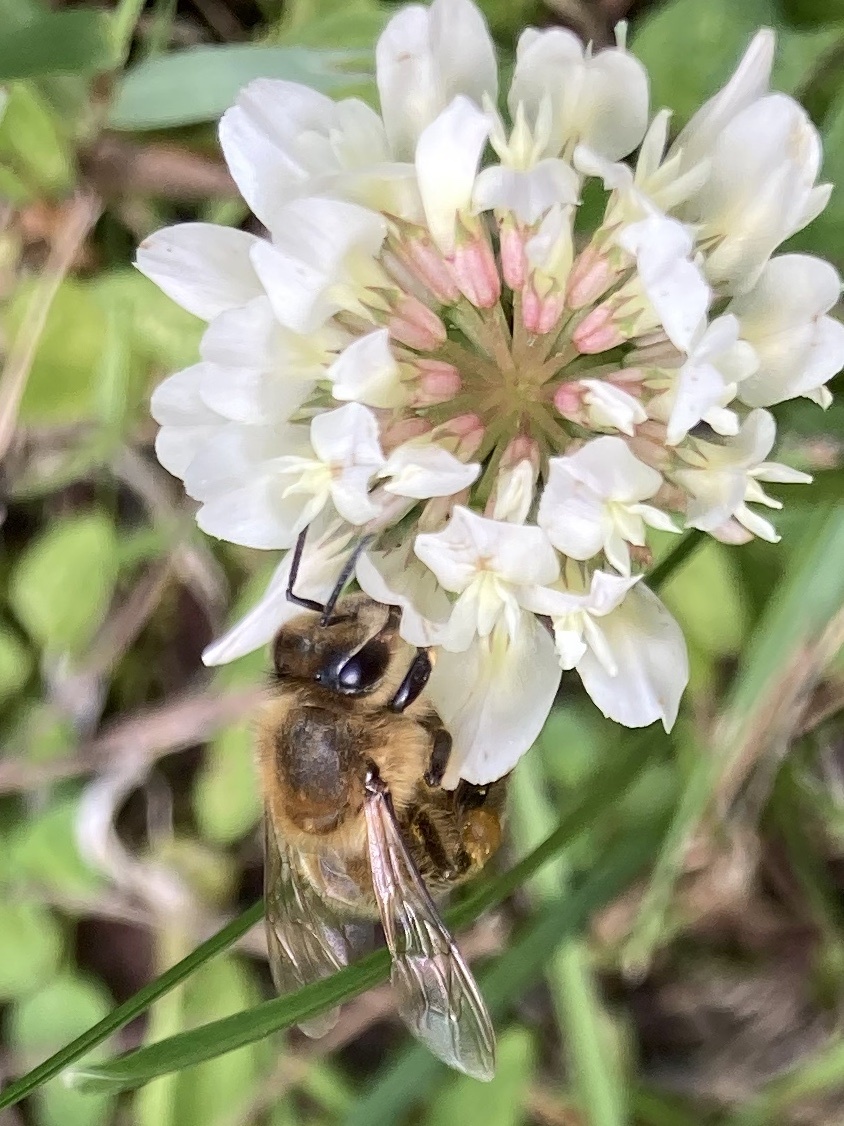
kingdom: Animalia
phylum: Arthropoda
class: Insecta
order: Hymenoptera
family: Apidae
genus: Apis
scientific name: Apis mellifera
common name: Honey bee
